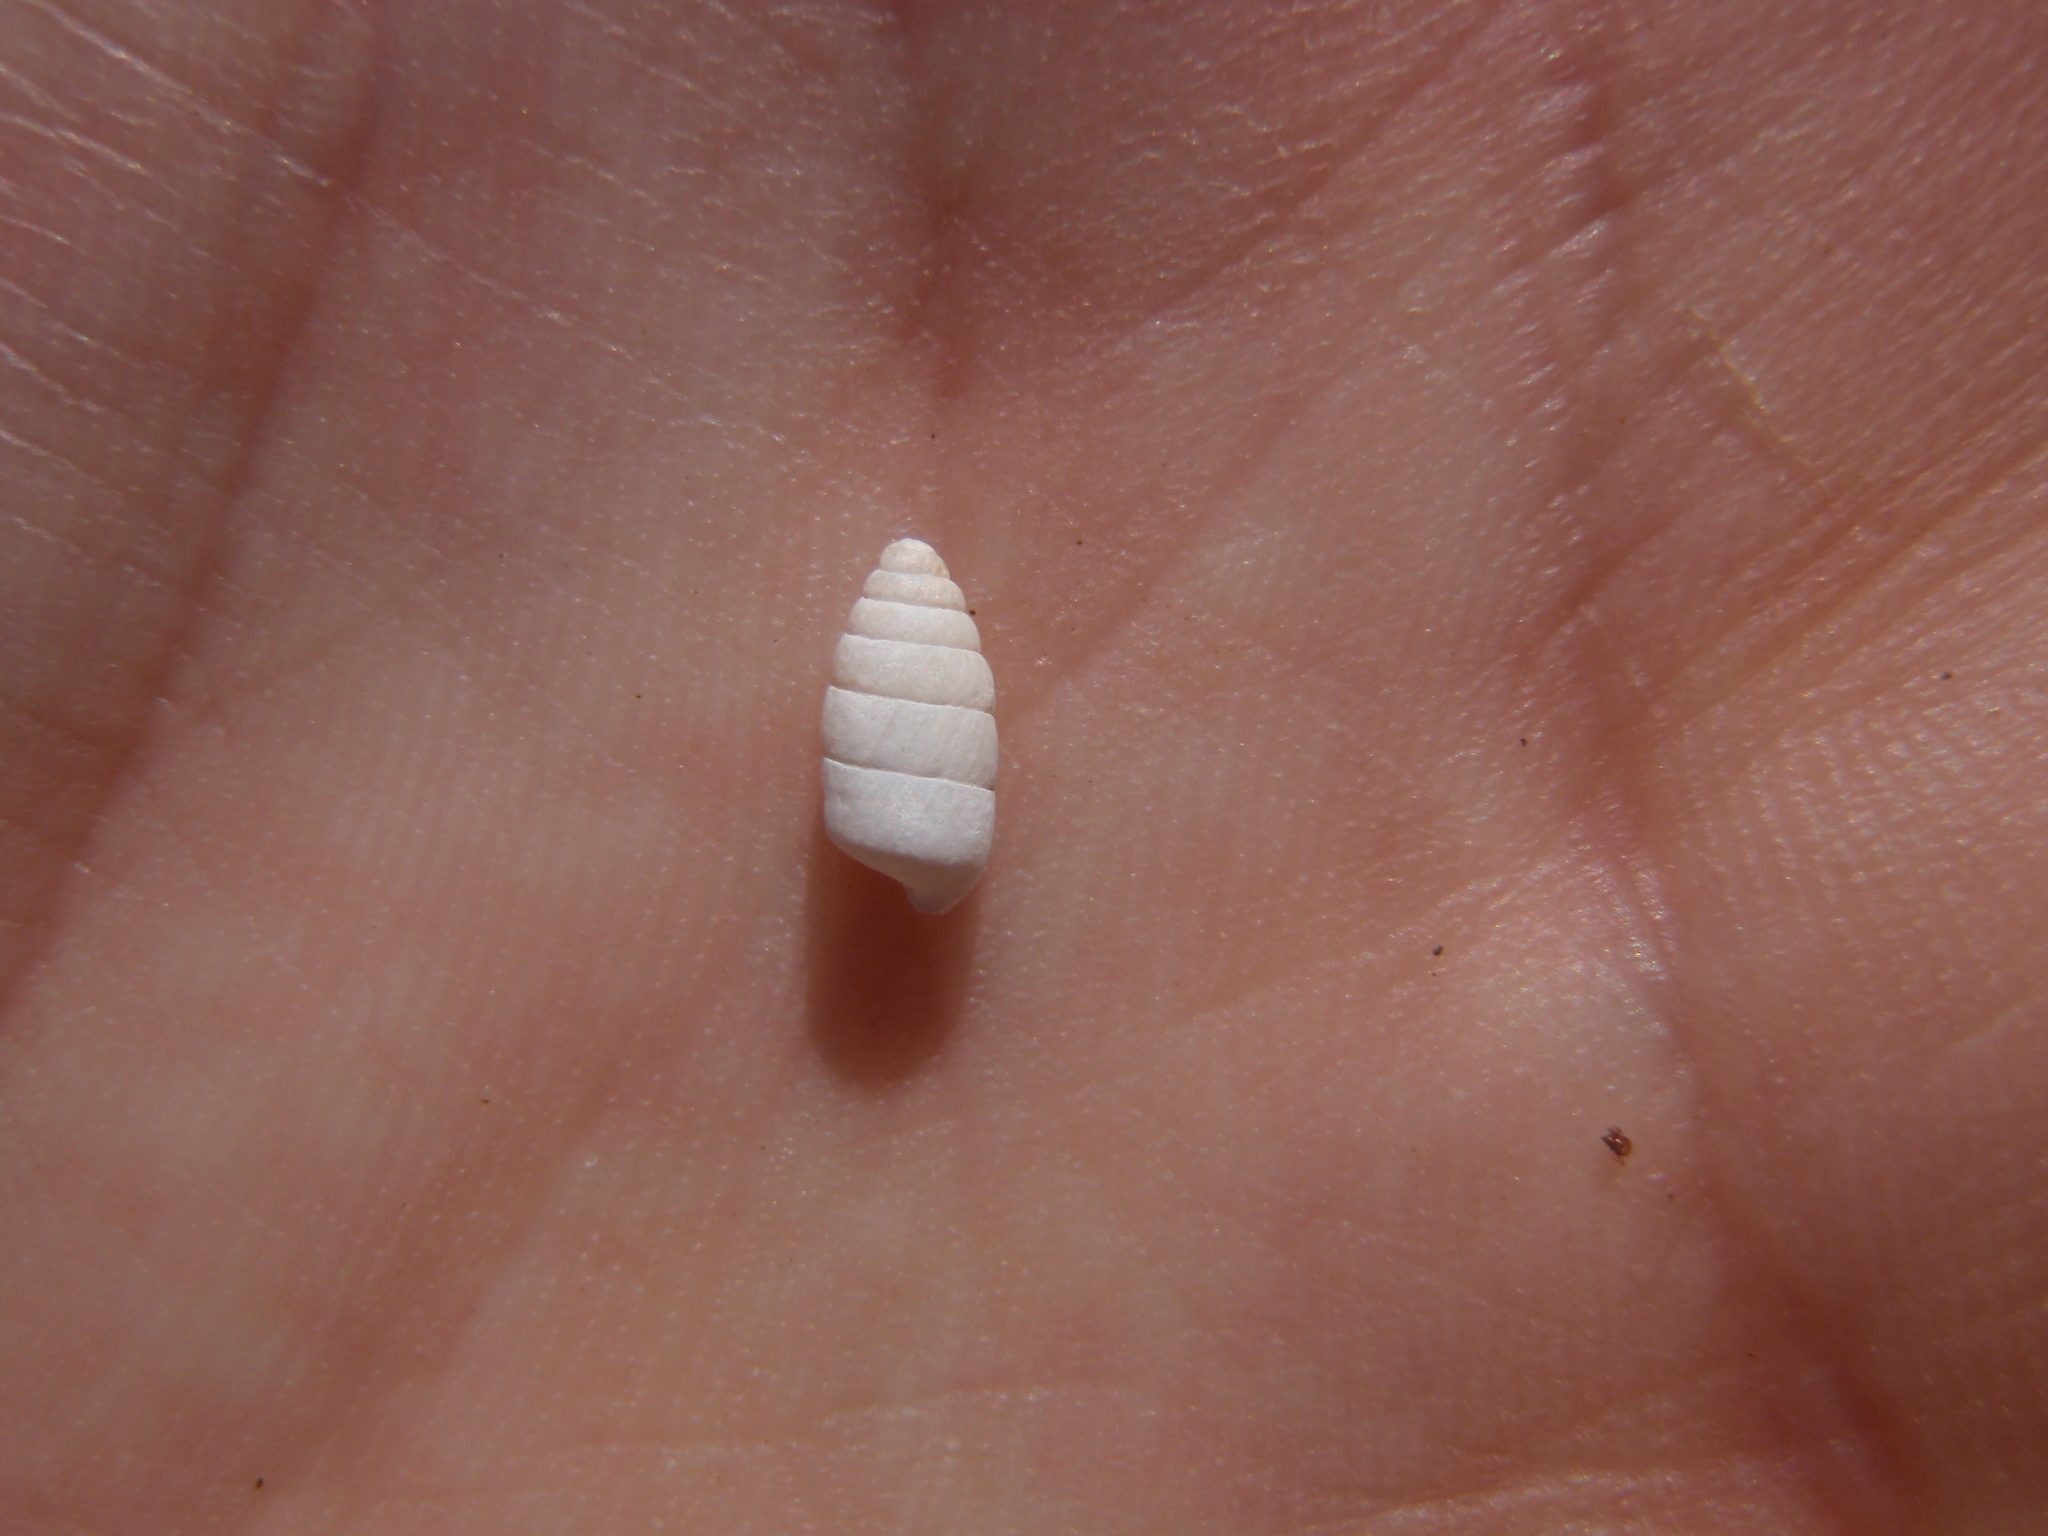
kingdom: Animalia
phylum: Mollusca
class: Gastropoda
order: Stylommatophora
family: Enidae
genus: Jaminia
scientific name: Jaminia quadridens
